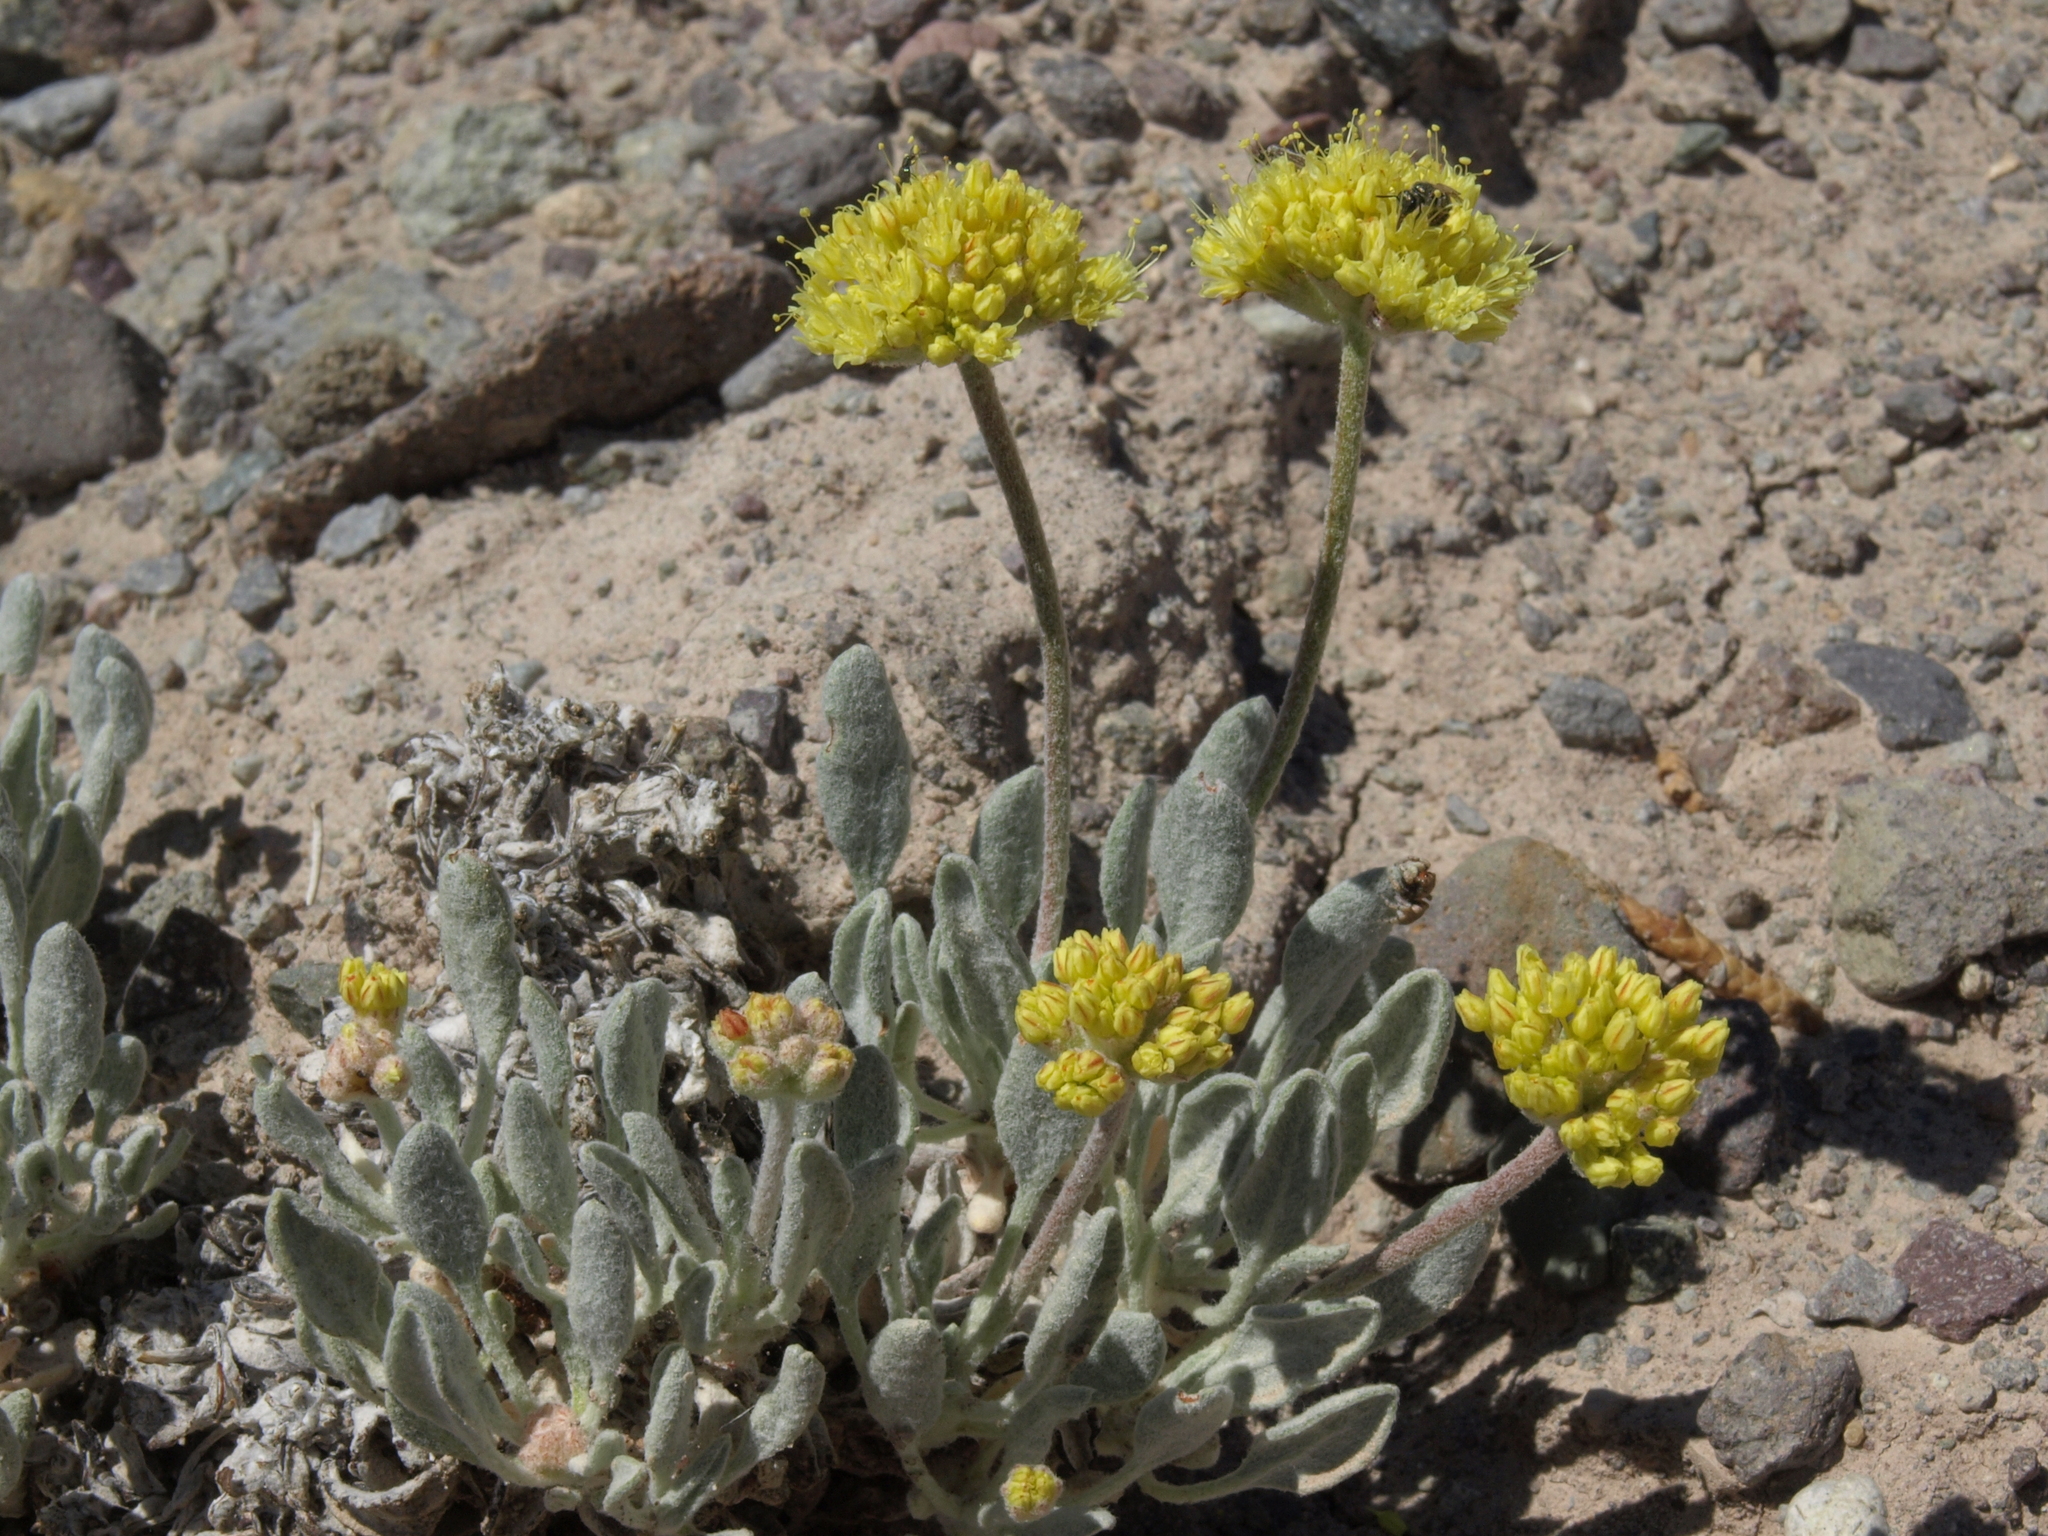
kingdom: Plantae
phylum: Tracheophyta
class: Magnoliopsida
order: Caryophyllales
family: Polygonaceae
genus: Eriogonum
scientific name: Eriogonum alexanderae
